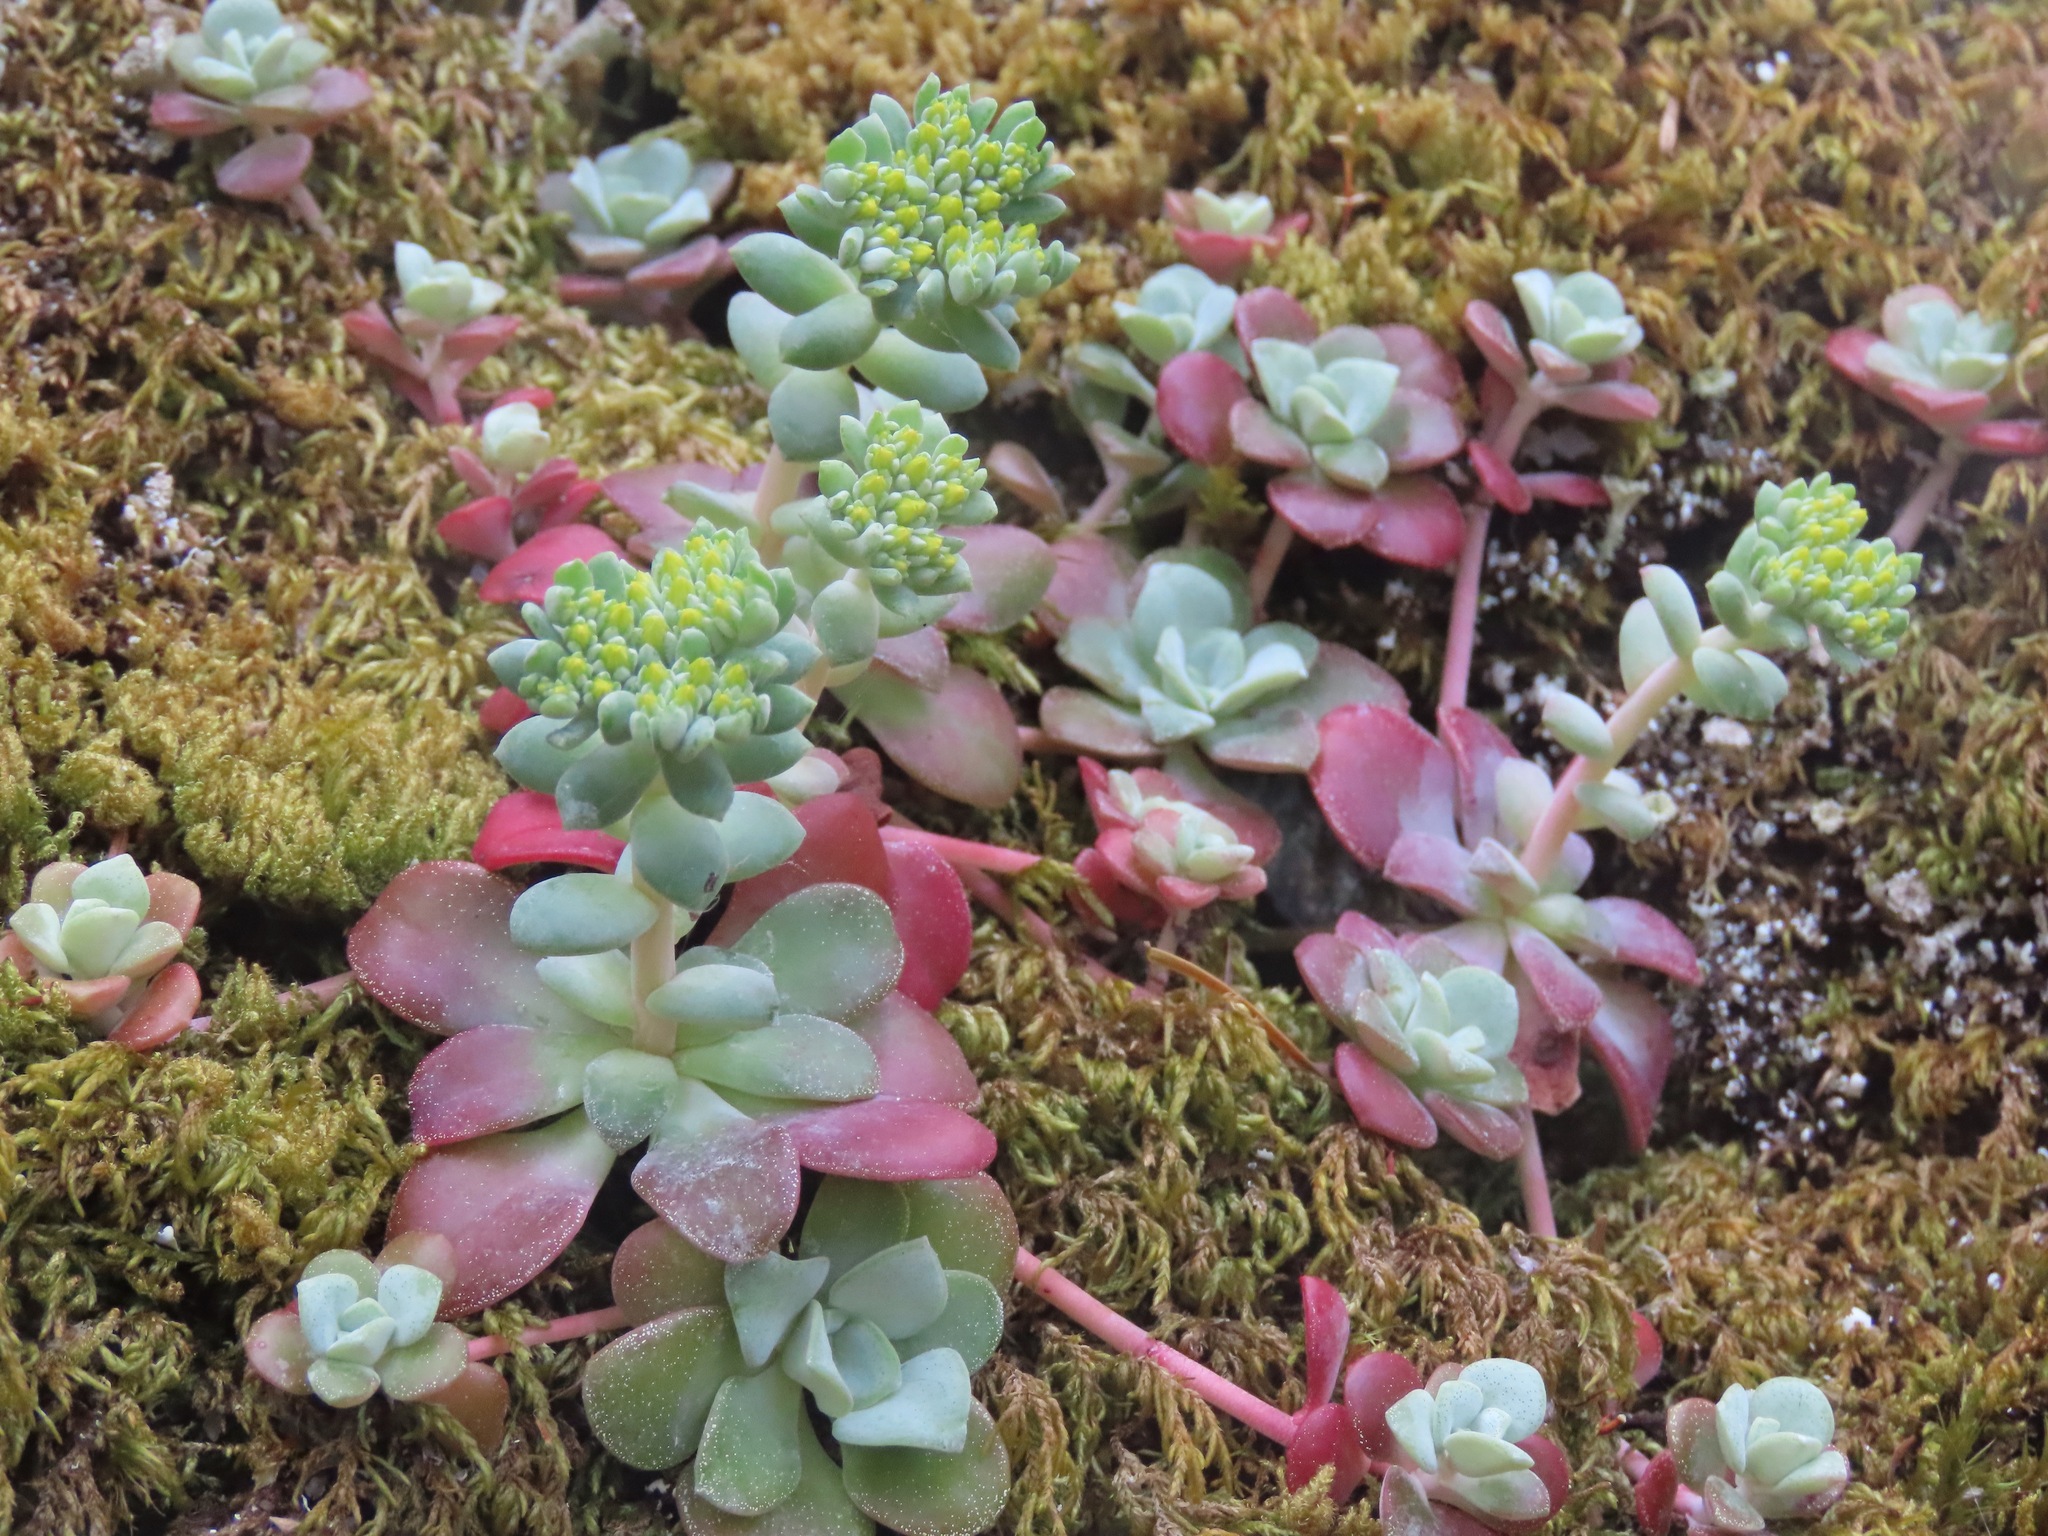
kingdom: Plantae
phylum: Tracheophyta
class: Magnoliopsida
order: Saxifragales
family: Crassulaceae
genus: Sedum
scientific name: Sedum spathulifolium
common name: Colorado stonecrop
